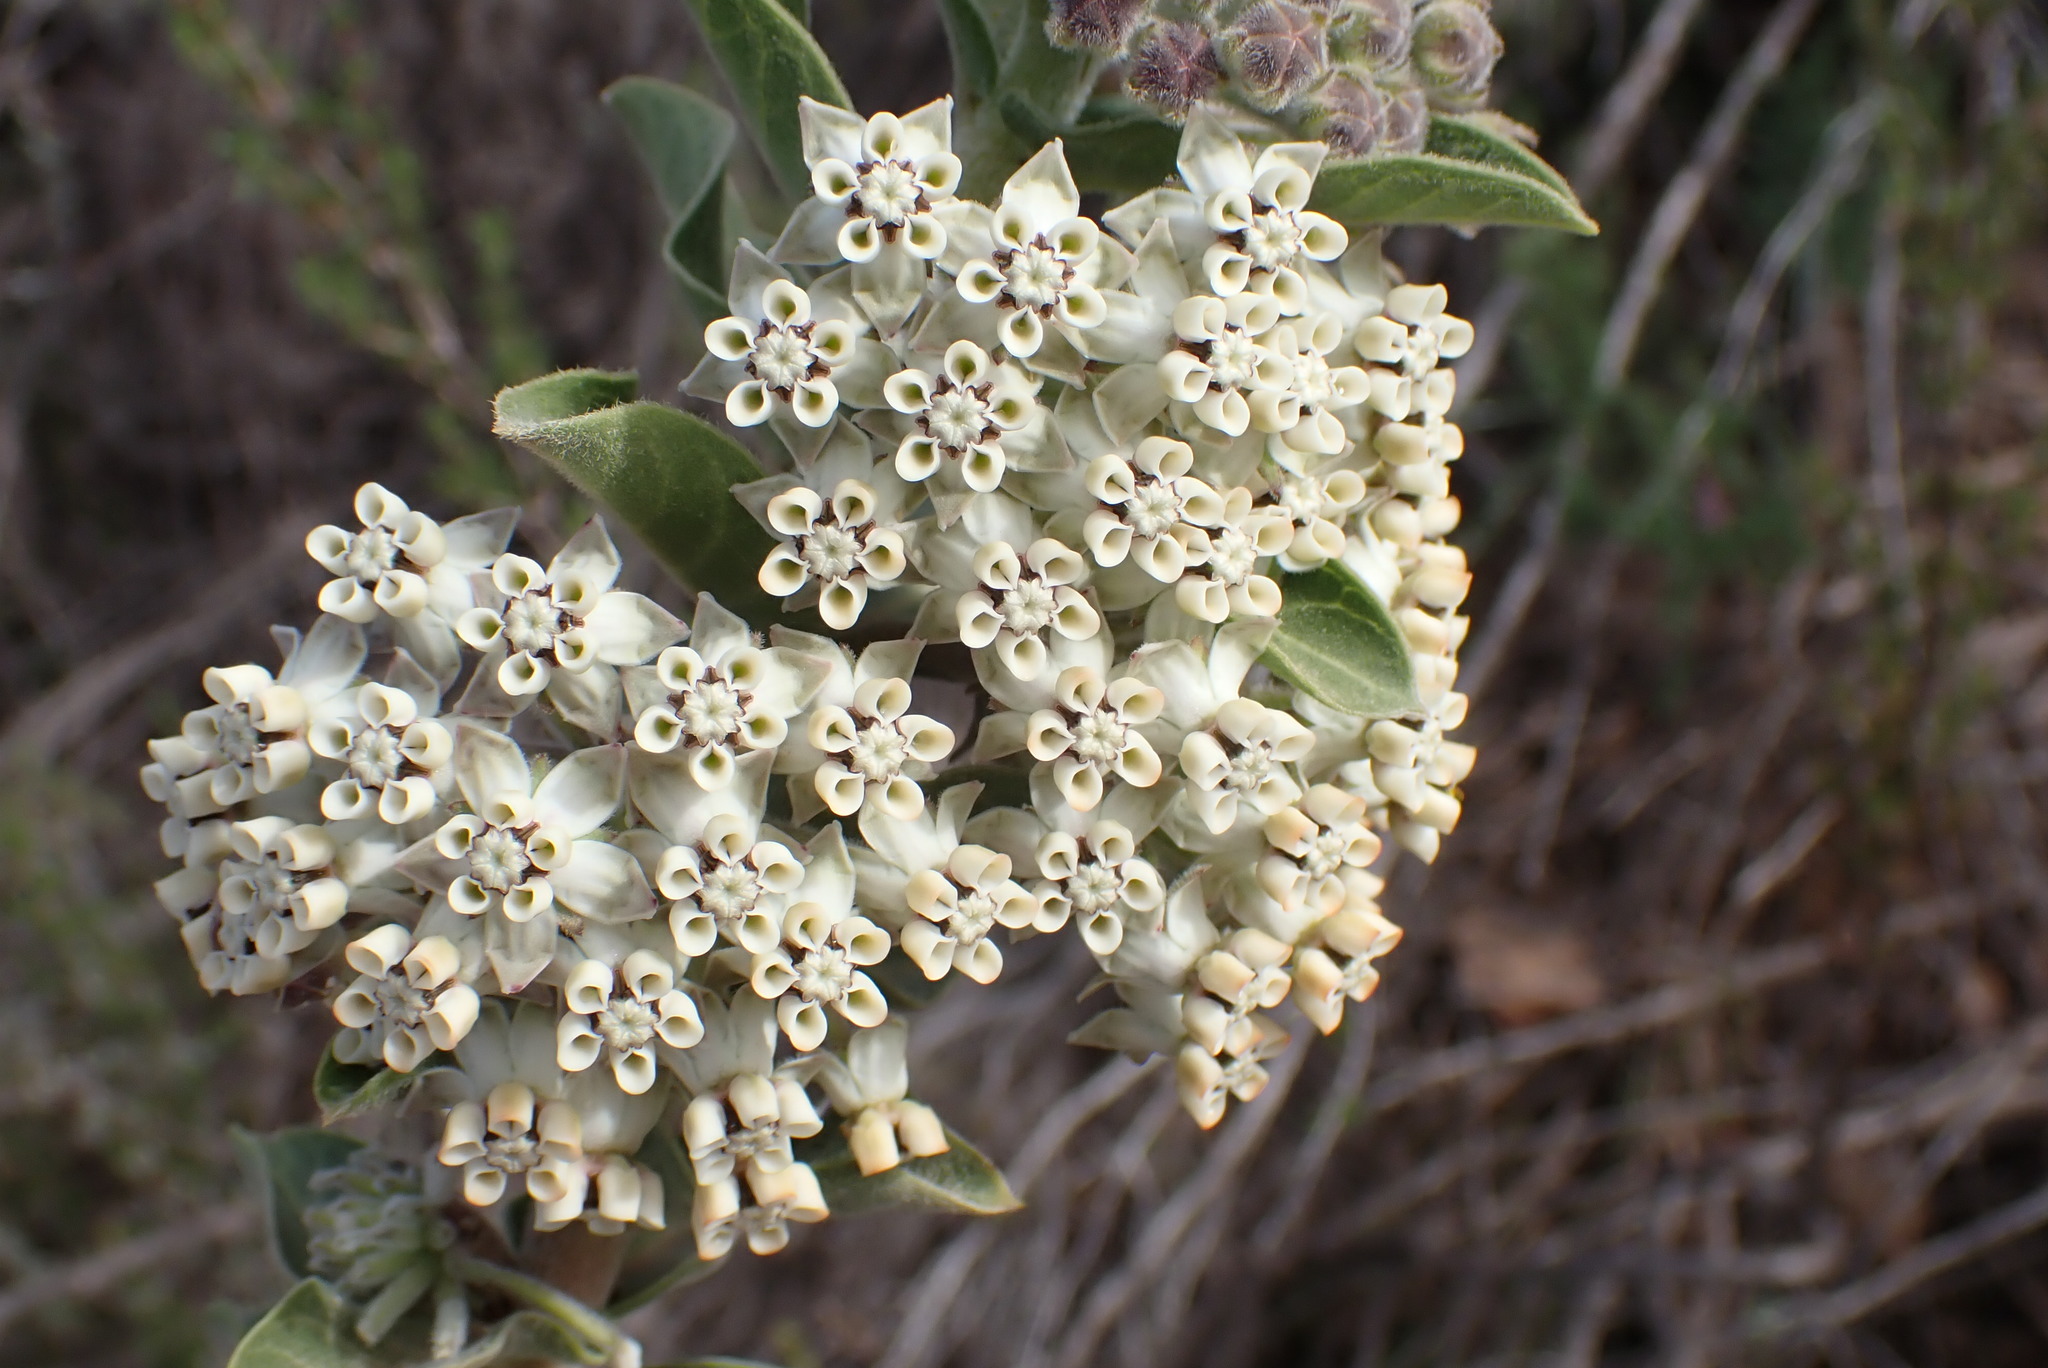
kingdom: Plantae
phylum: Tracheophyta
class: Magnoliopsida
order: Gentianales
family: Apocynaceae
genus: Gomphocarpus
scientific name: Gomphocarpus cancellatus
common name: Wild cotton
